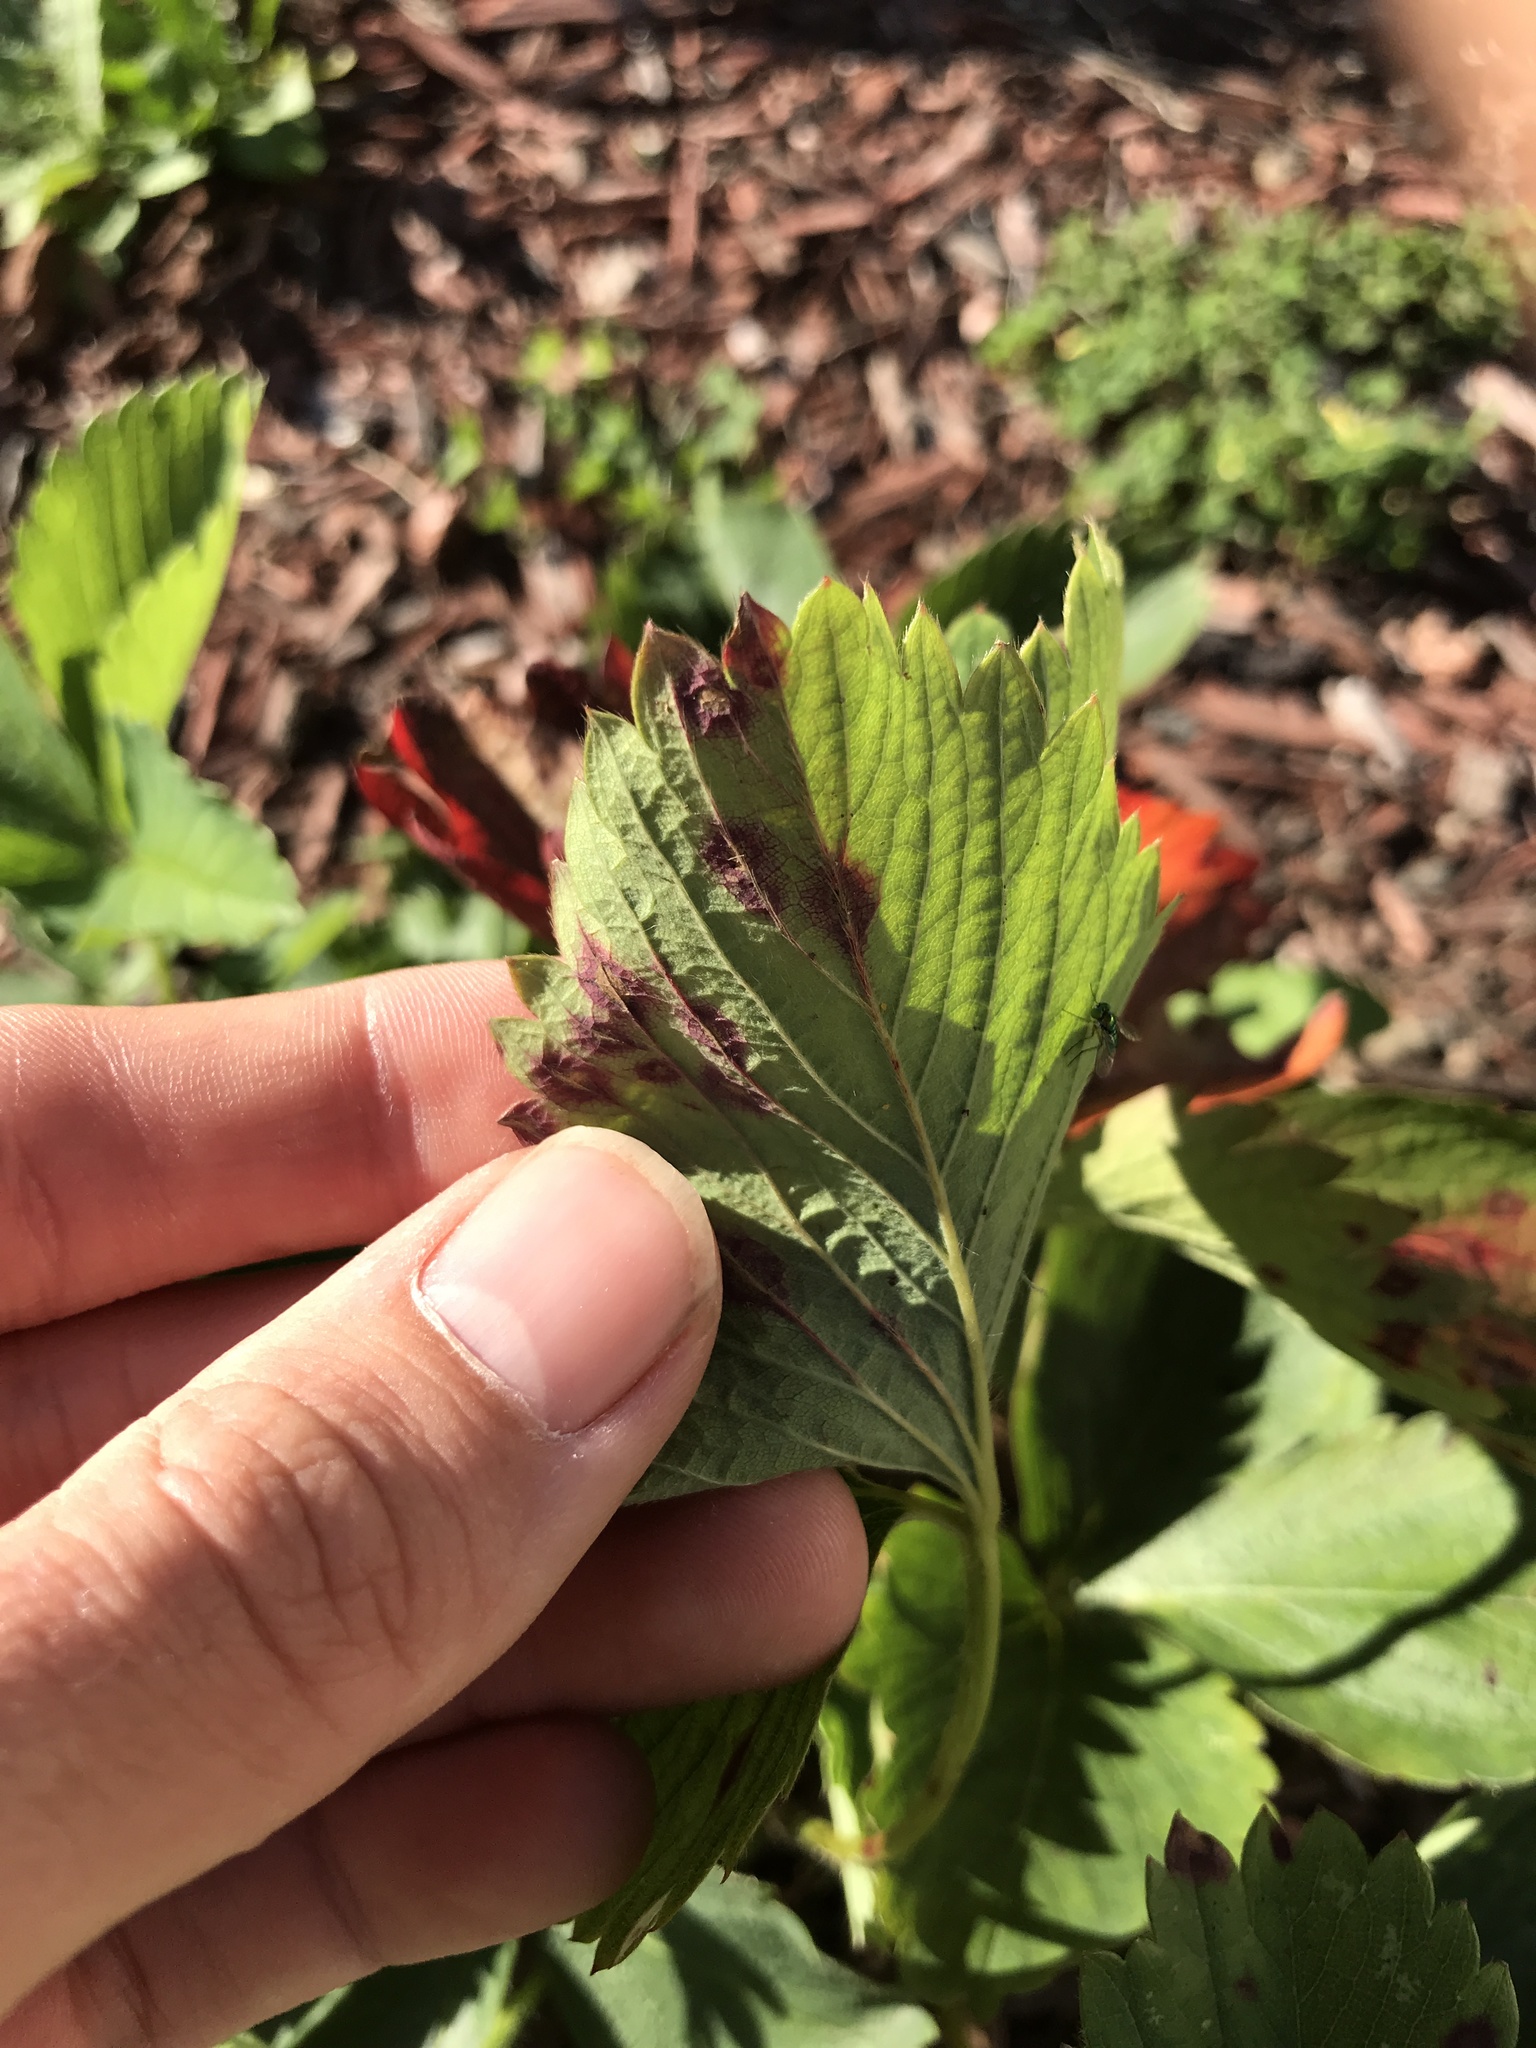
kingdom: Fungi
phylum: Ascomycota
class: Dothideomycetes
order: Mycosphaerellales
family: Mycosphaerellaceae
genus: Ramularia
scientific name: Ramularia grevilleana
